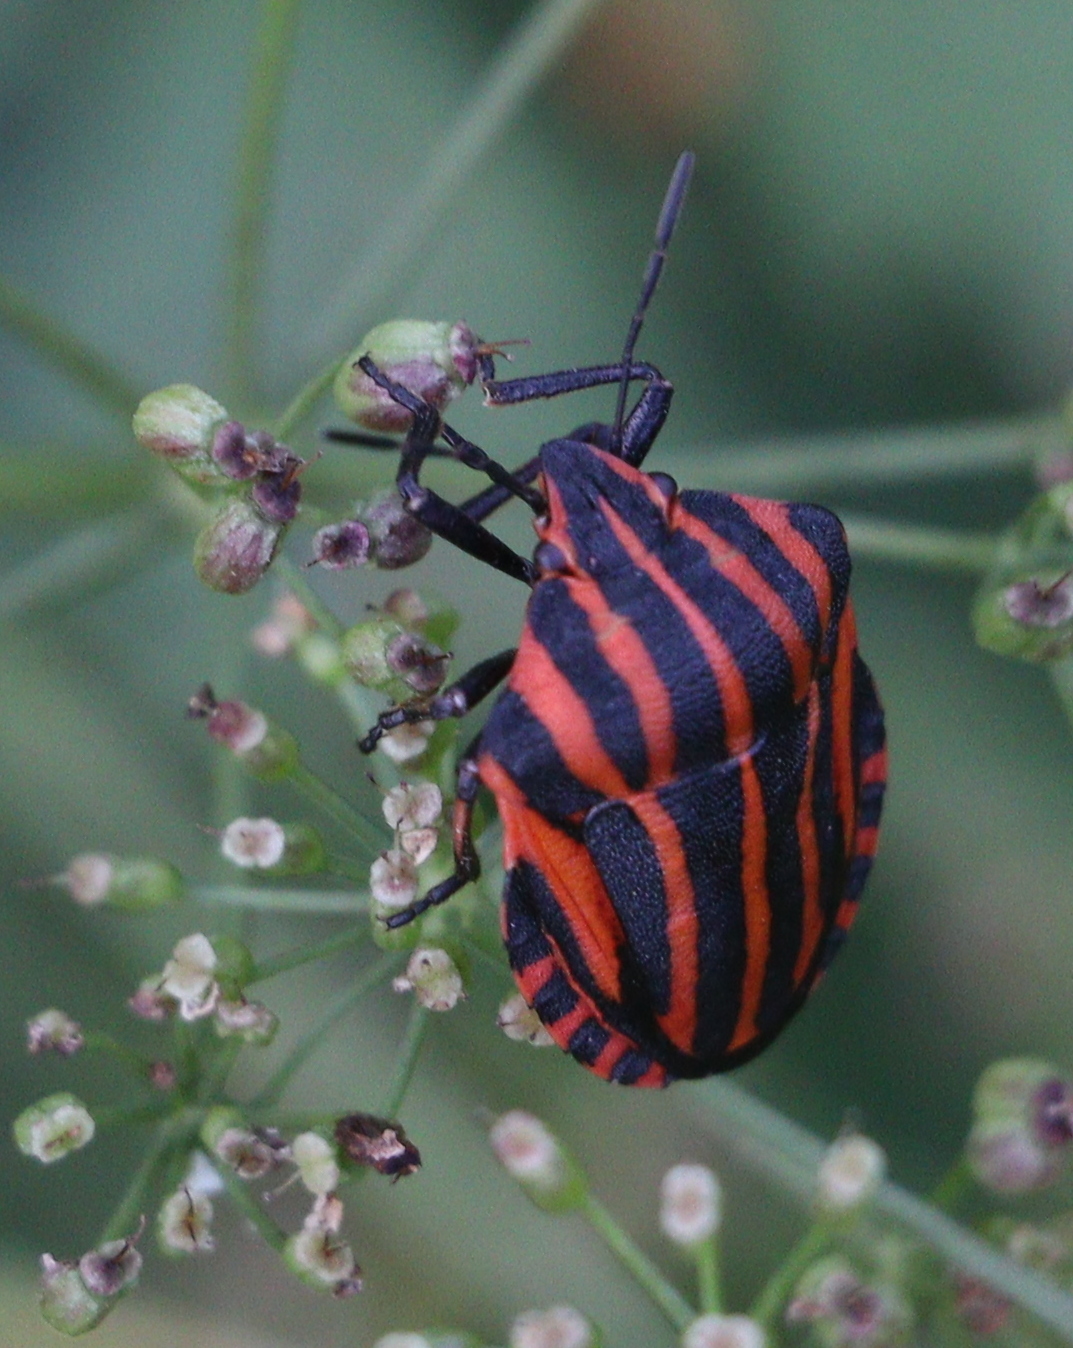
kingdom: Animalia
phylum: Arthropoda
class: Insecta
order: Hemiptera
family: Pentatomidae
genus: Graphosoma
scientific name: Graphosoma italicum
